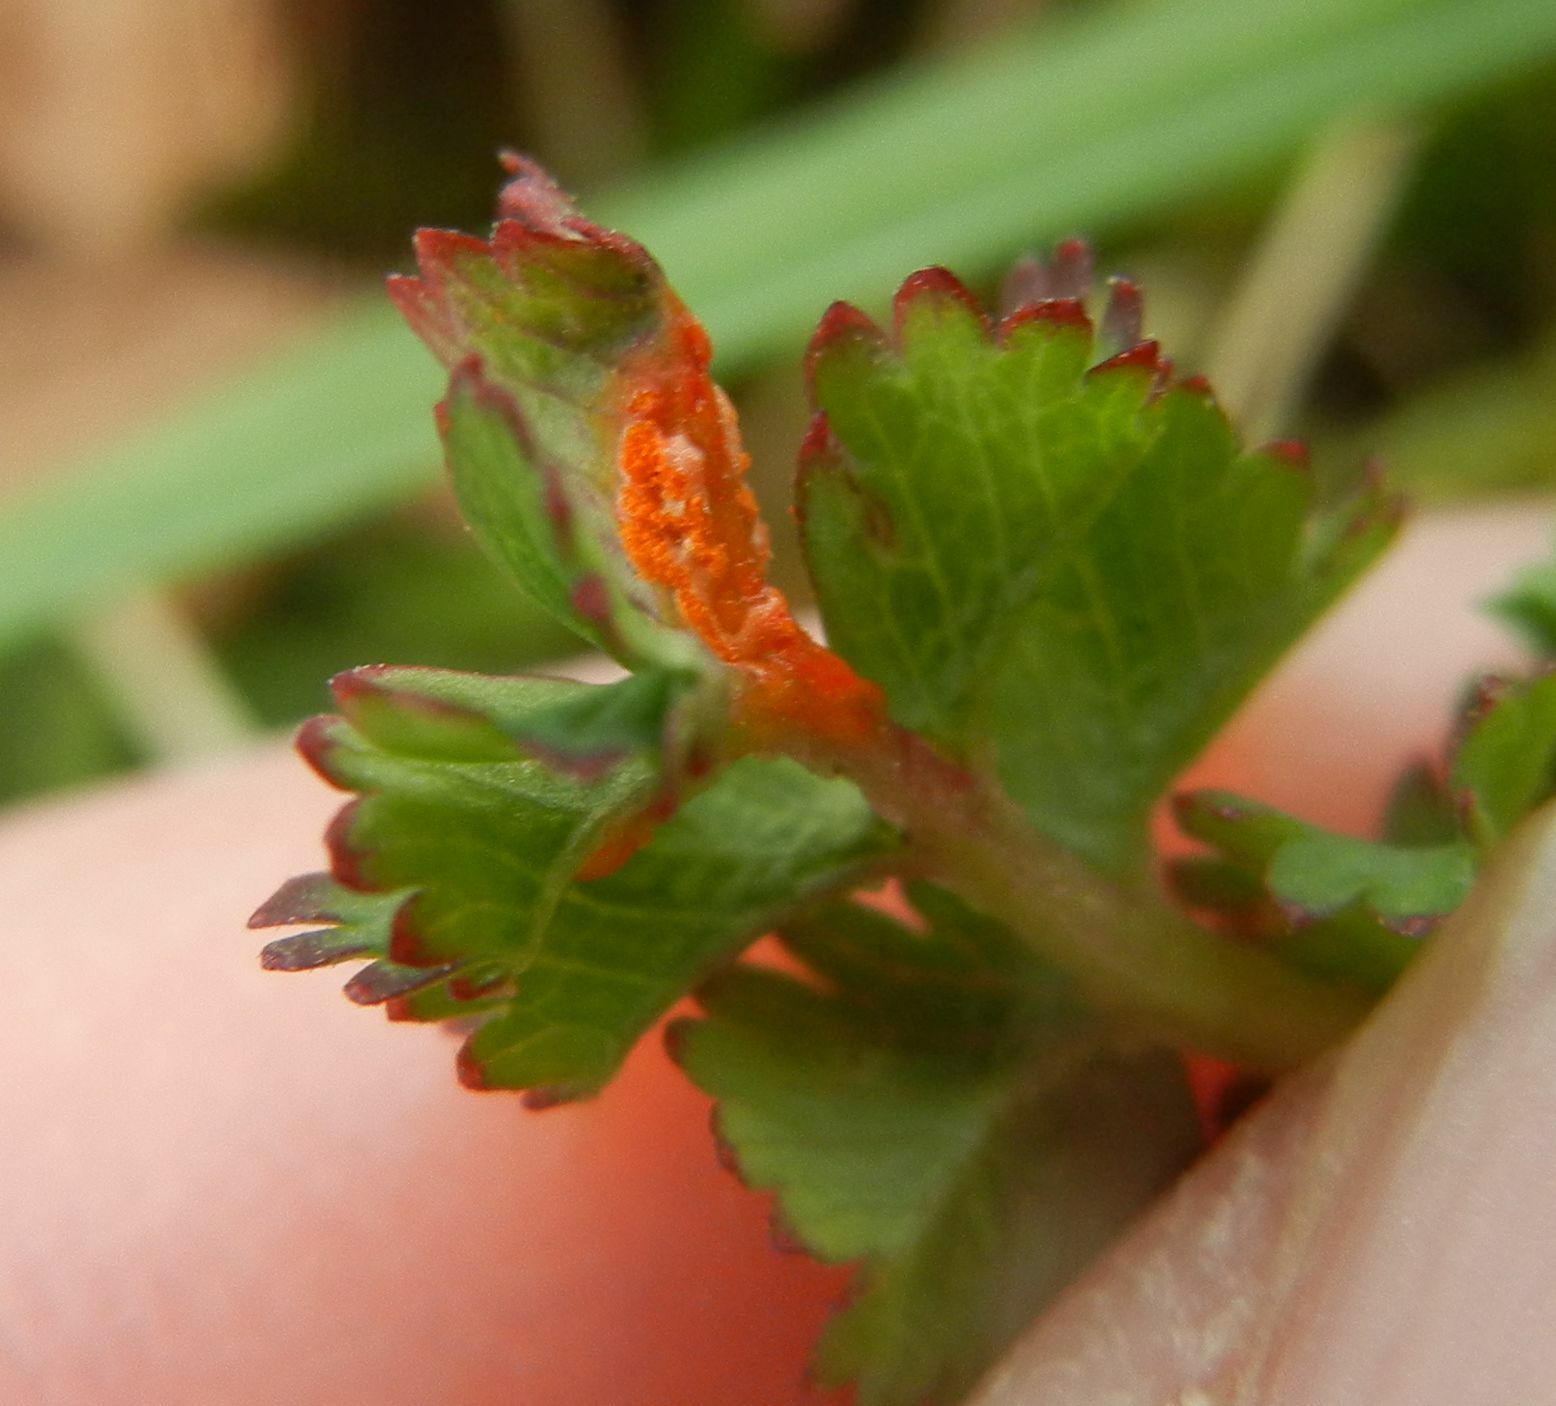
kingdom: Fungi
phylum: Basidiomycota
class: Pucciniomycetes
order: Pucciniales
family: Phragmidiaceae
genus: Phragmidium
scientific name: Phragmidium sanguisorbae
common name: Salad burnet rust
